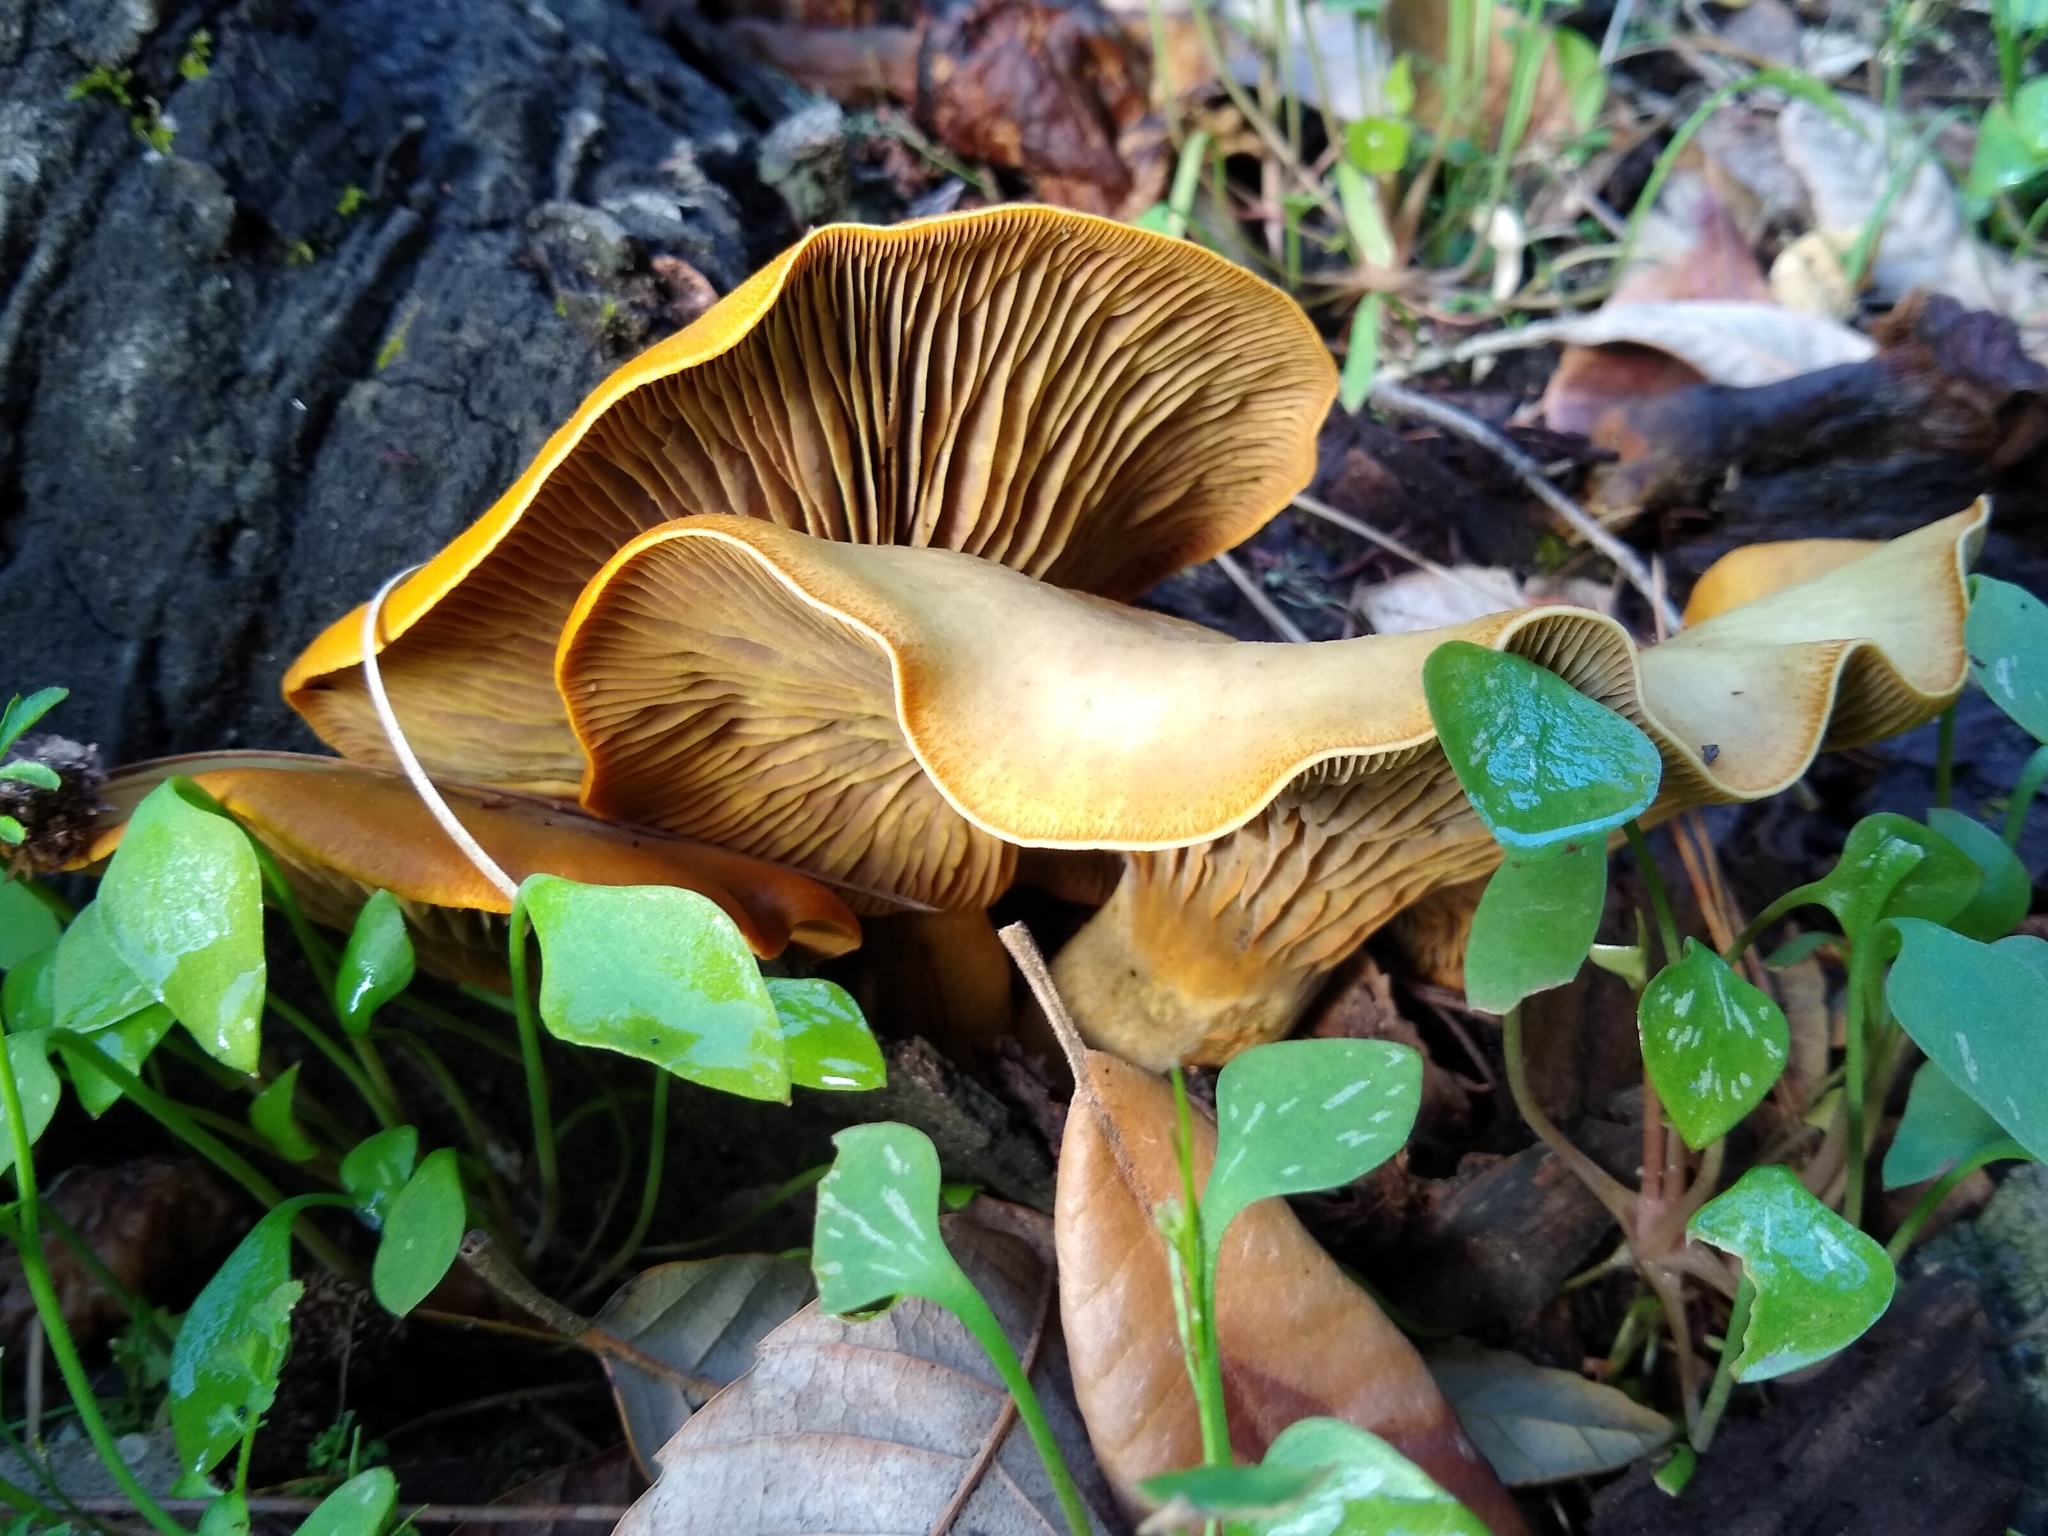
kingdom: Fungi
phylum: Basidiomycota
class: Agaricomycetes
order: Agaricales
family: Omphalotaceae
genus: Omphalotus
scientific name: Omphalotus olivascens
